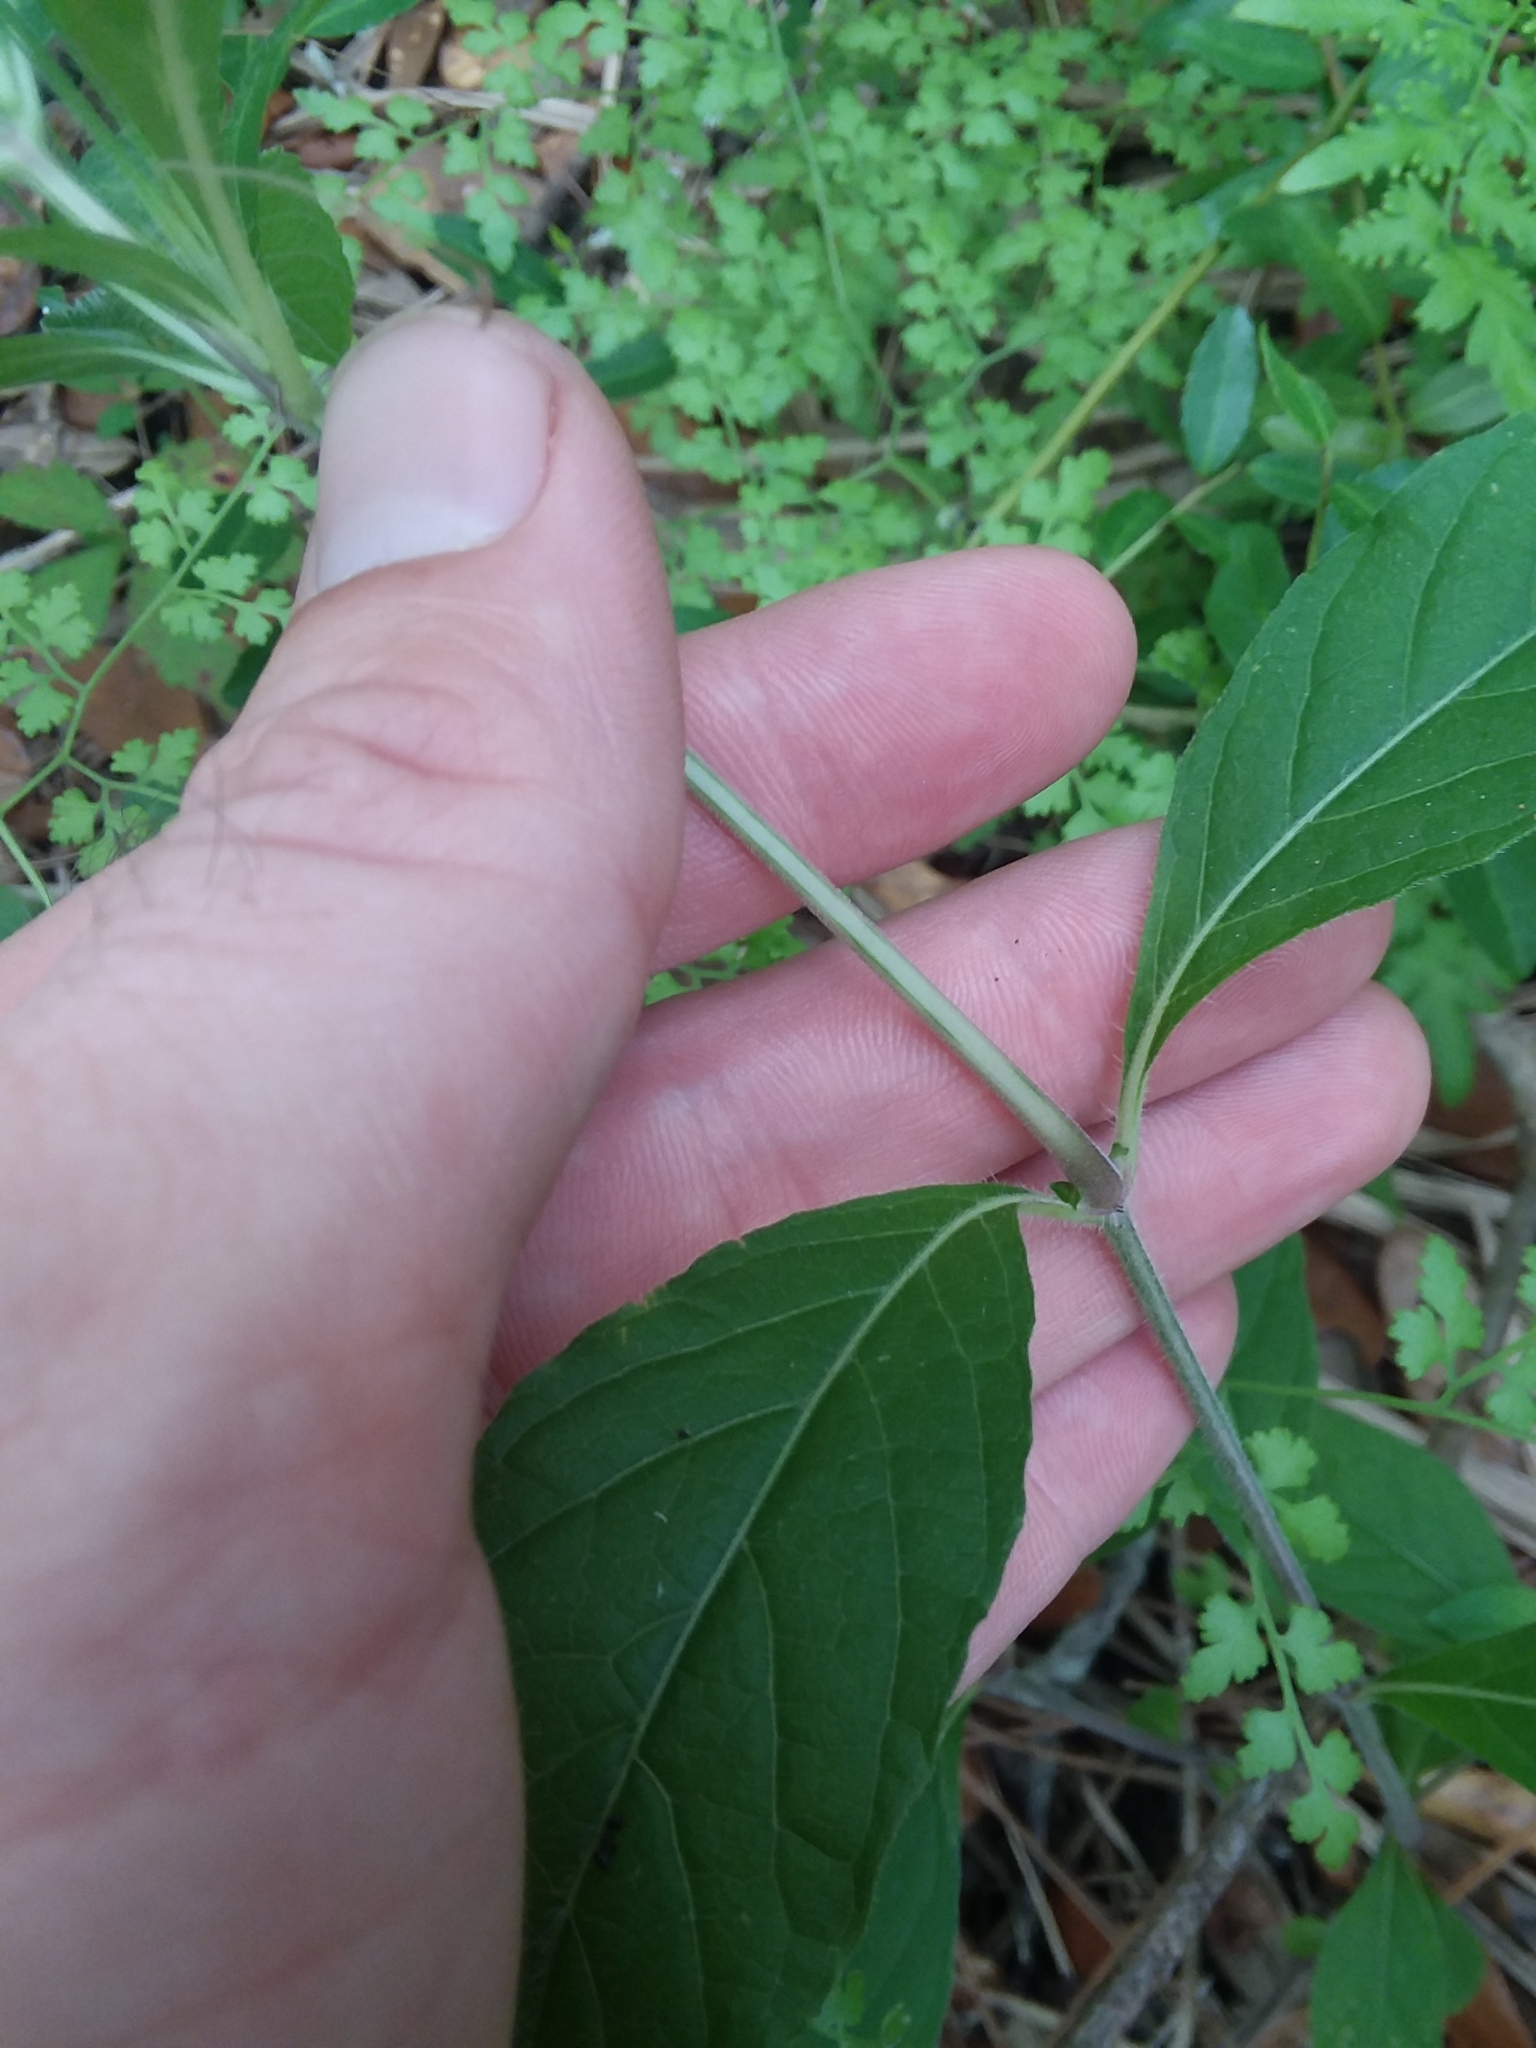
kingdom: Plantae
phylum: Tracheophyta
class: Magnoliopsida
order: Lamiales
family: Acanthaceae
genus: Ruellia
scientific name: Ruellia caroliniensis
